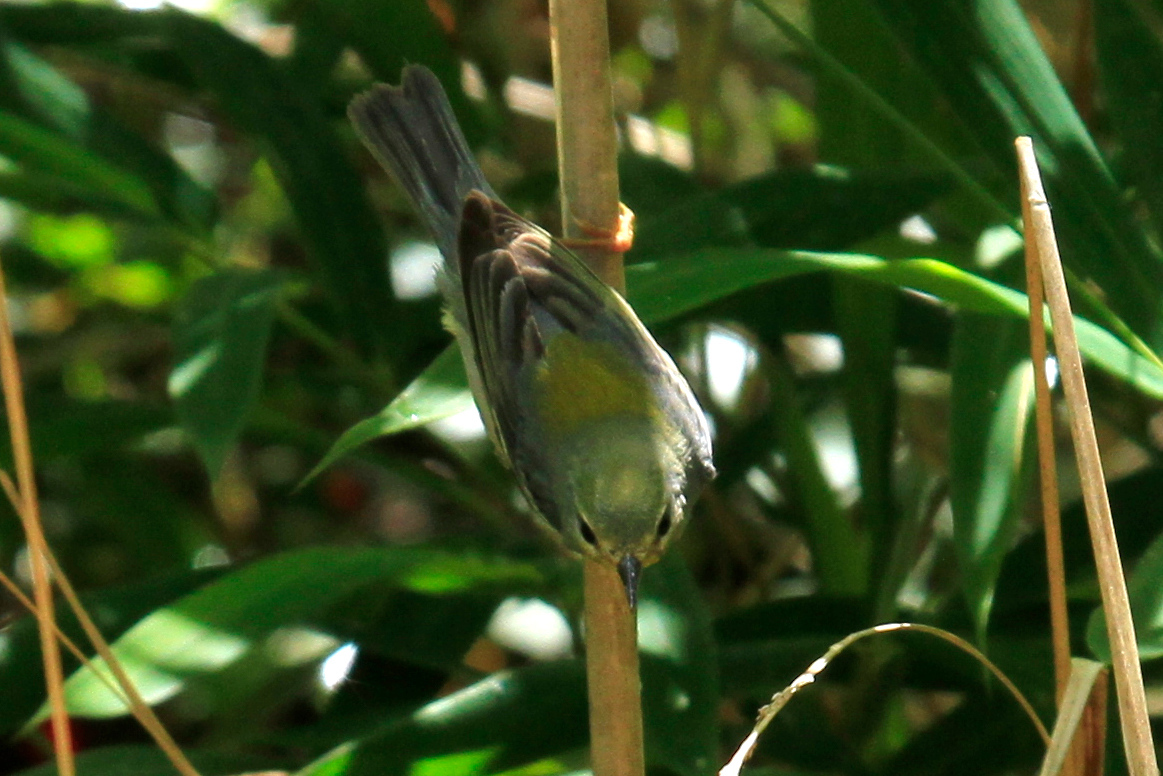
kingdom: Animalia
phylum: Chordata
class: Aves
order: Passeriformes
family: Parulidae
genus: Setophaga
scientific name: Setophaga americana
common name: Northern parula
